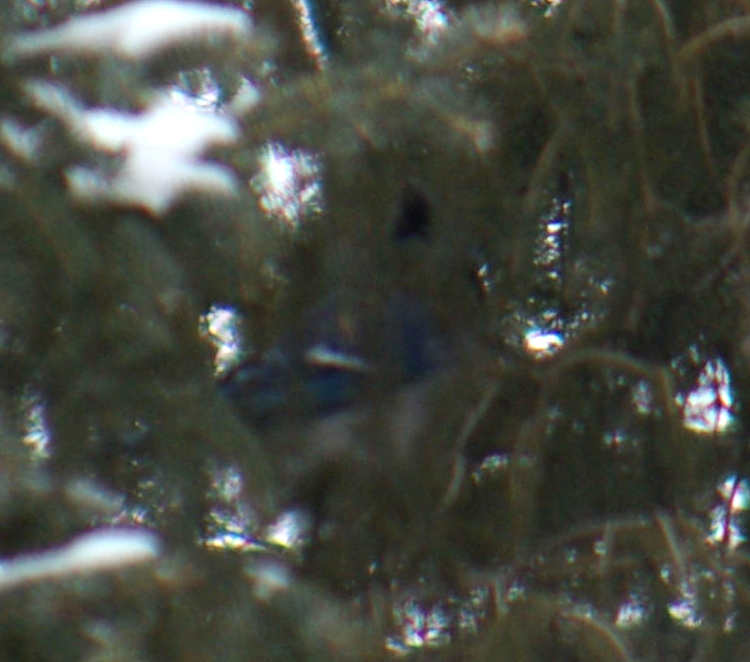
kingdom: Animalia
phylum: Chordata
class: Aves
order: Passeriformes
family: Corvidae
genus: Cyanocitta
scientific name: Cyanocitta cristata
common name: Blue jay
